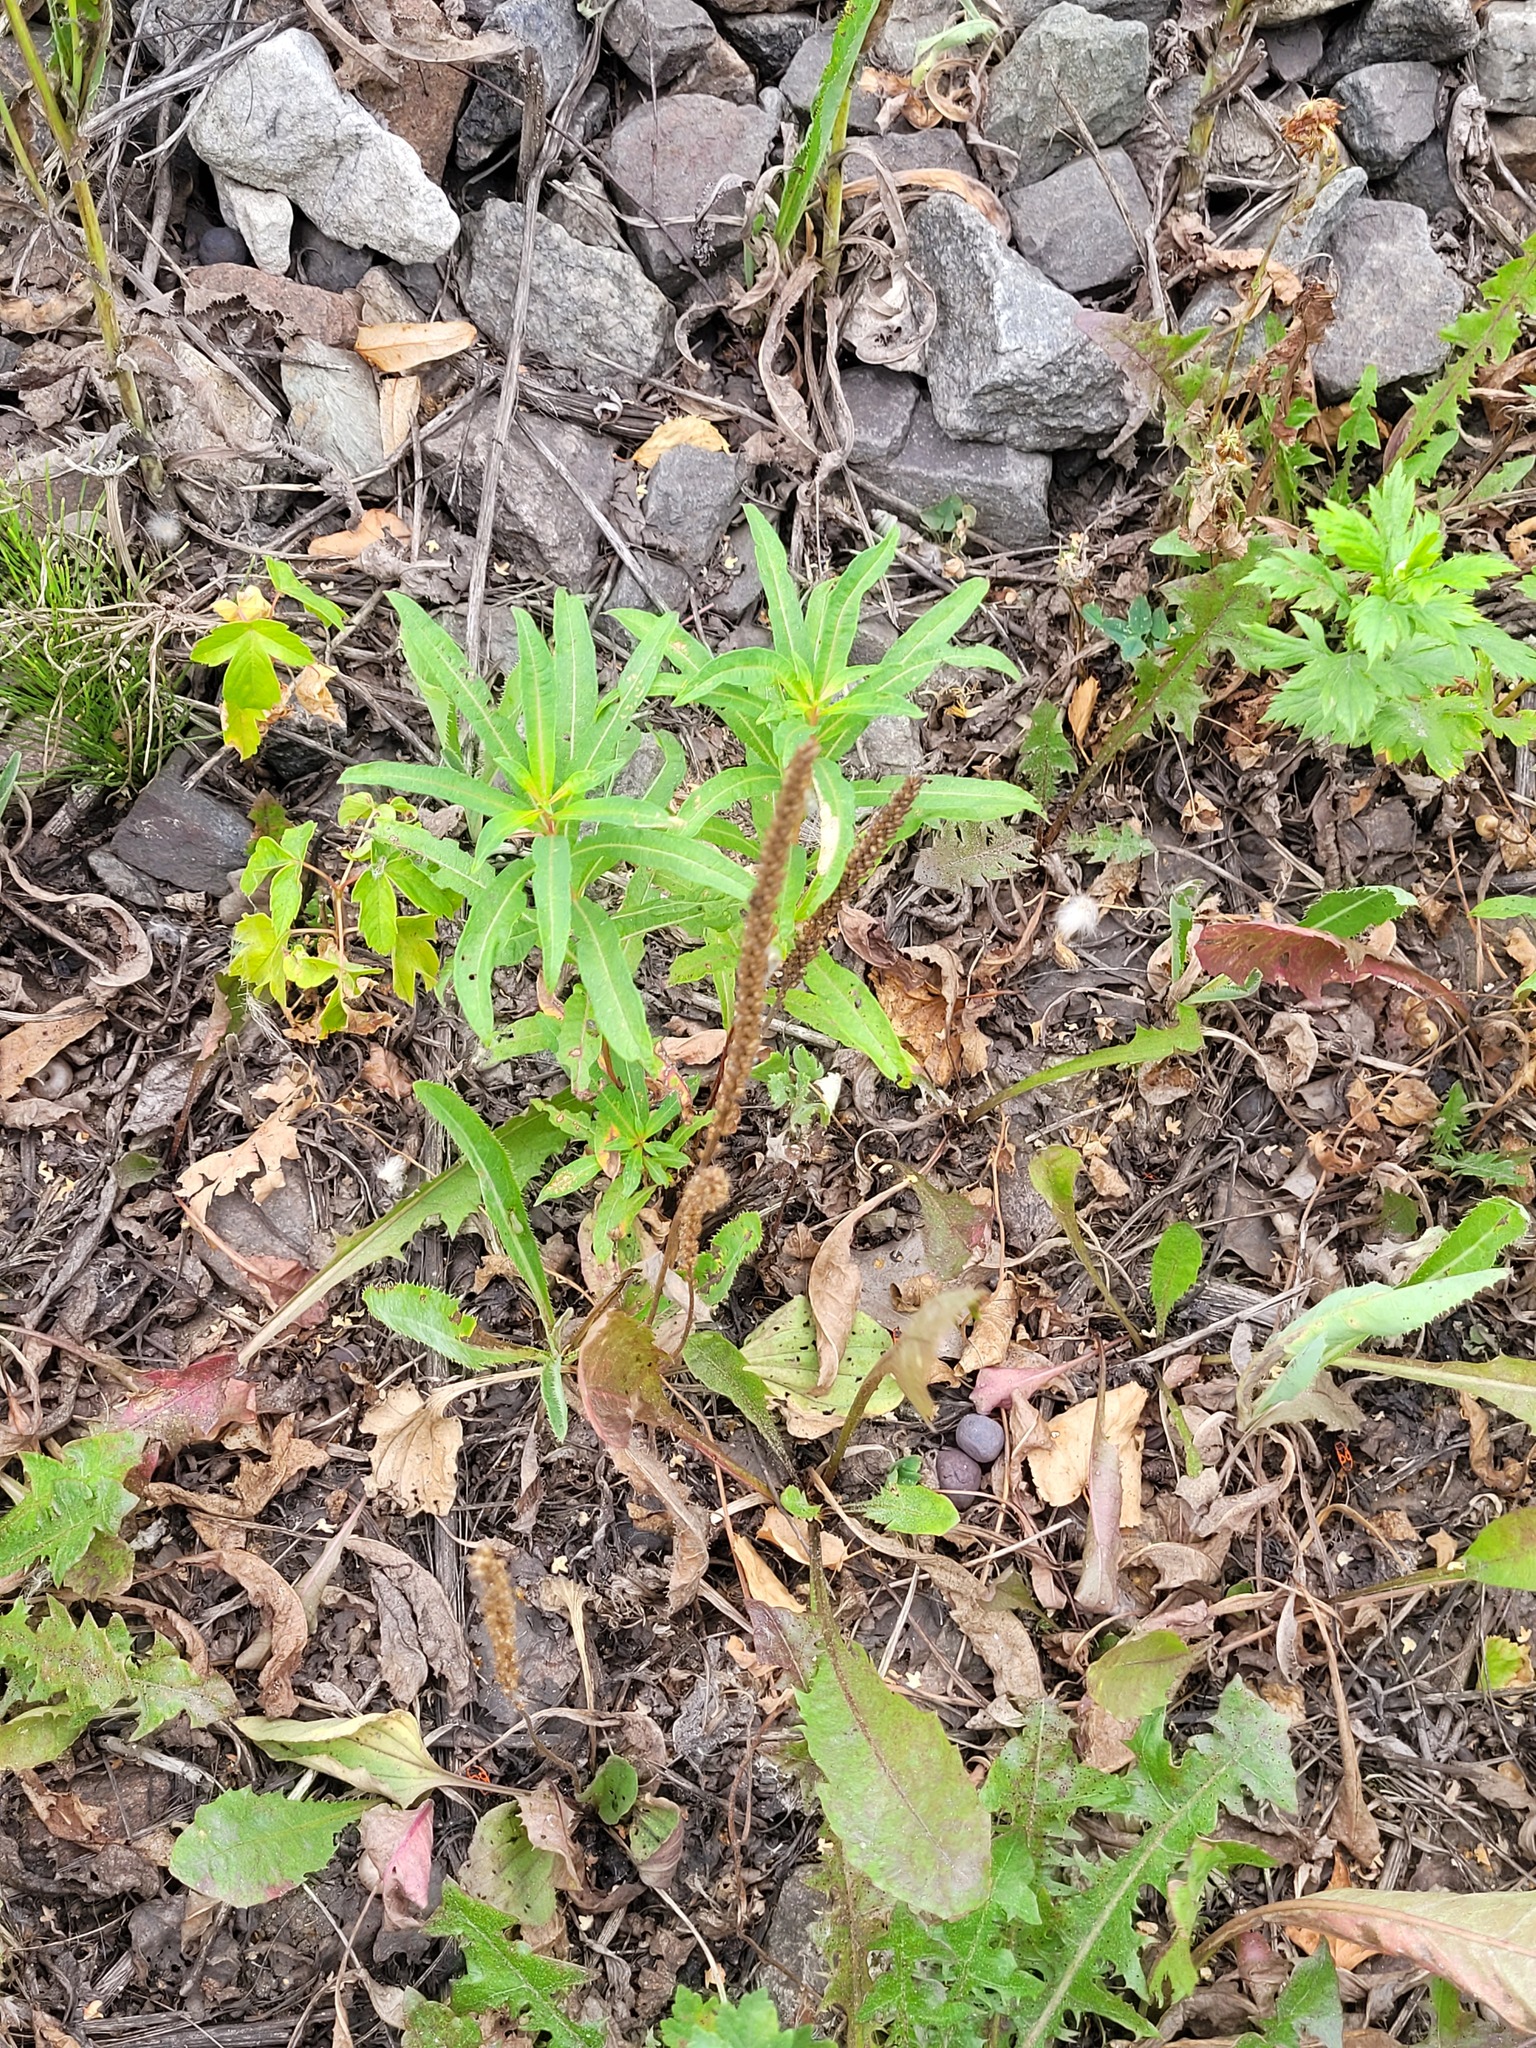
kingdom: Plantae
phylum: Tracheophyta
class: Magnoliopsida
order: Lamiales
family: Plantaginaceae
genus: Plantago
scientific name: Plantago major
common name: Common plantain
